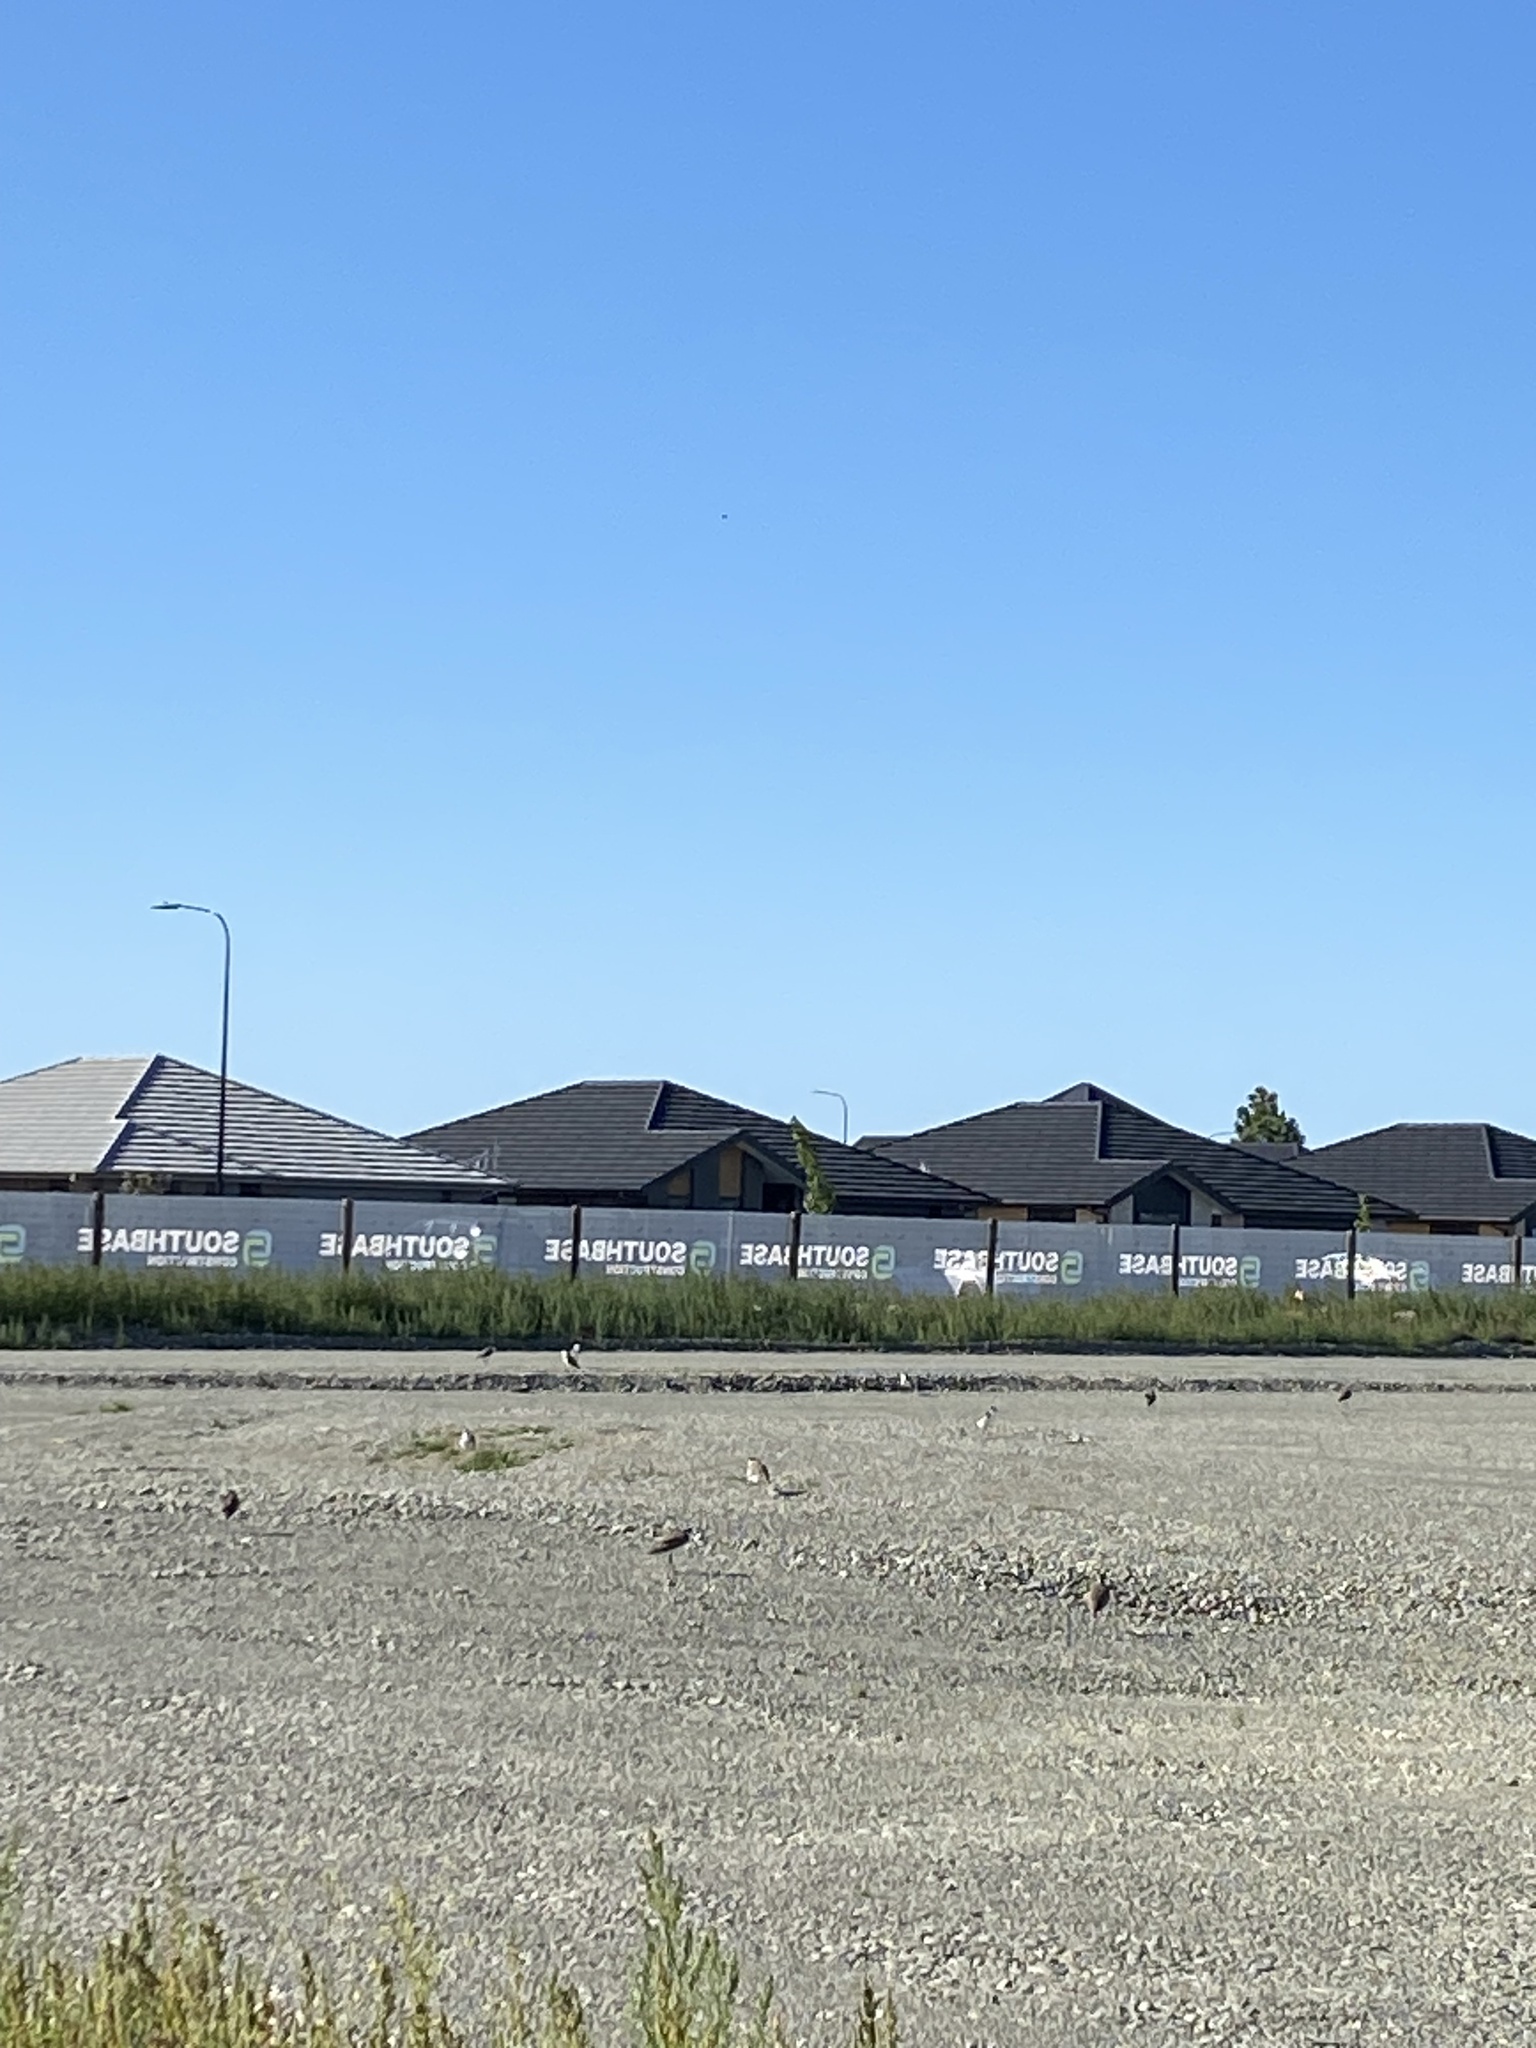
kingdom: Animalia
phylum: Chordata
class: Aves
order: Charadriiformes
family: Charadriidae
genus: Vanellus
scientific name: Vanellus miles
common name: Masked lapwing
